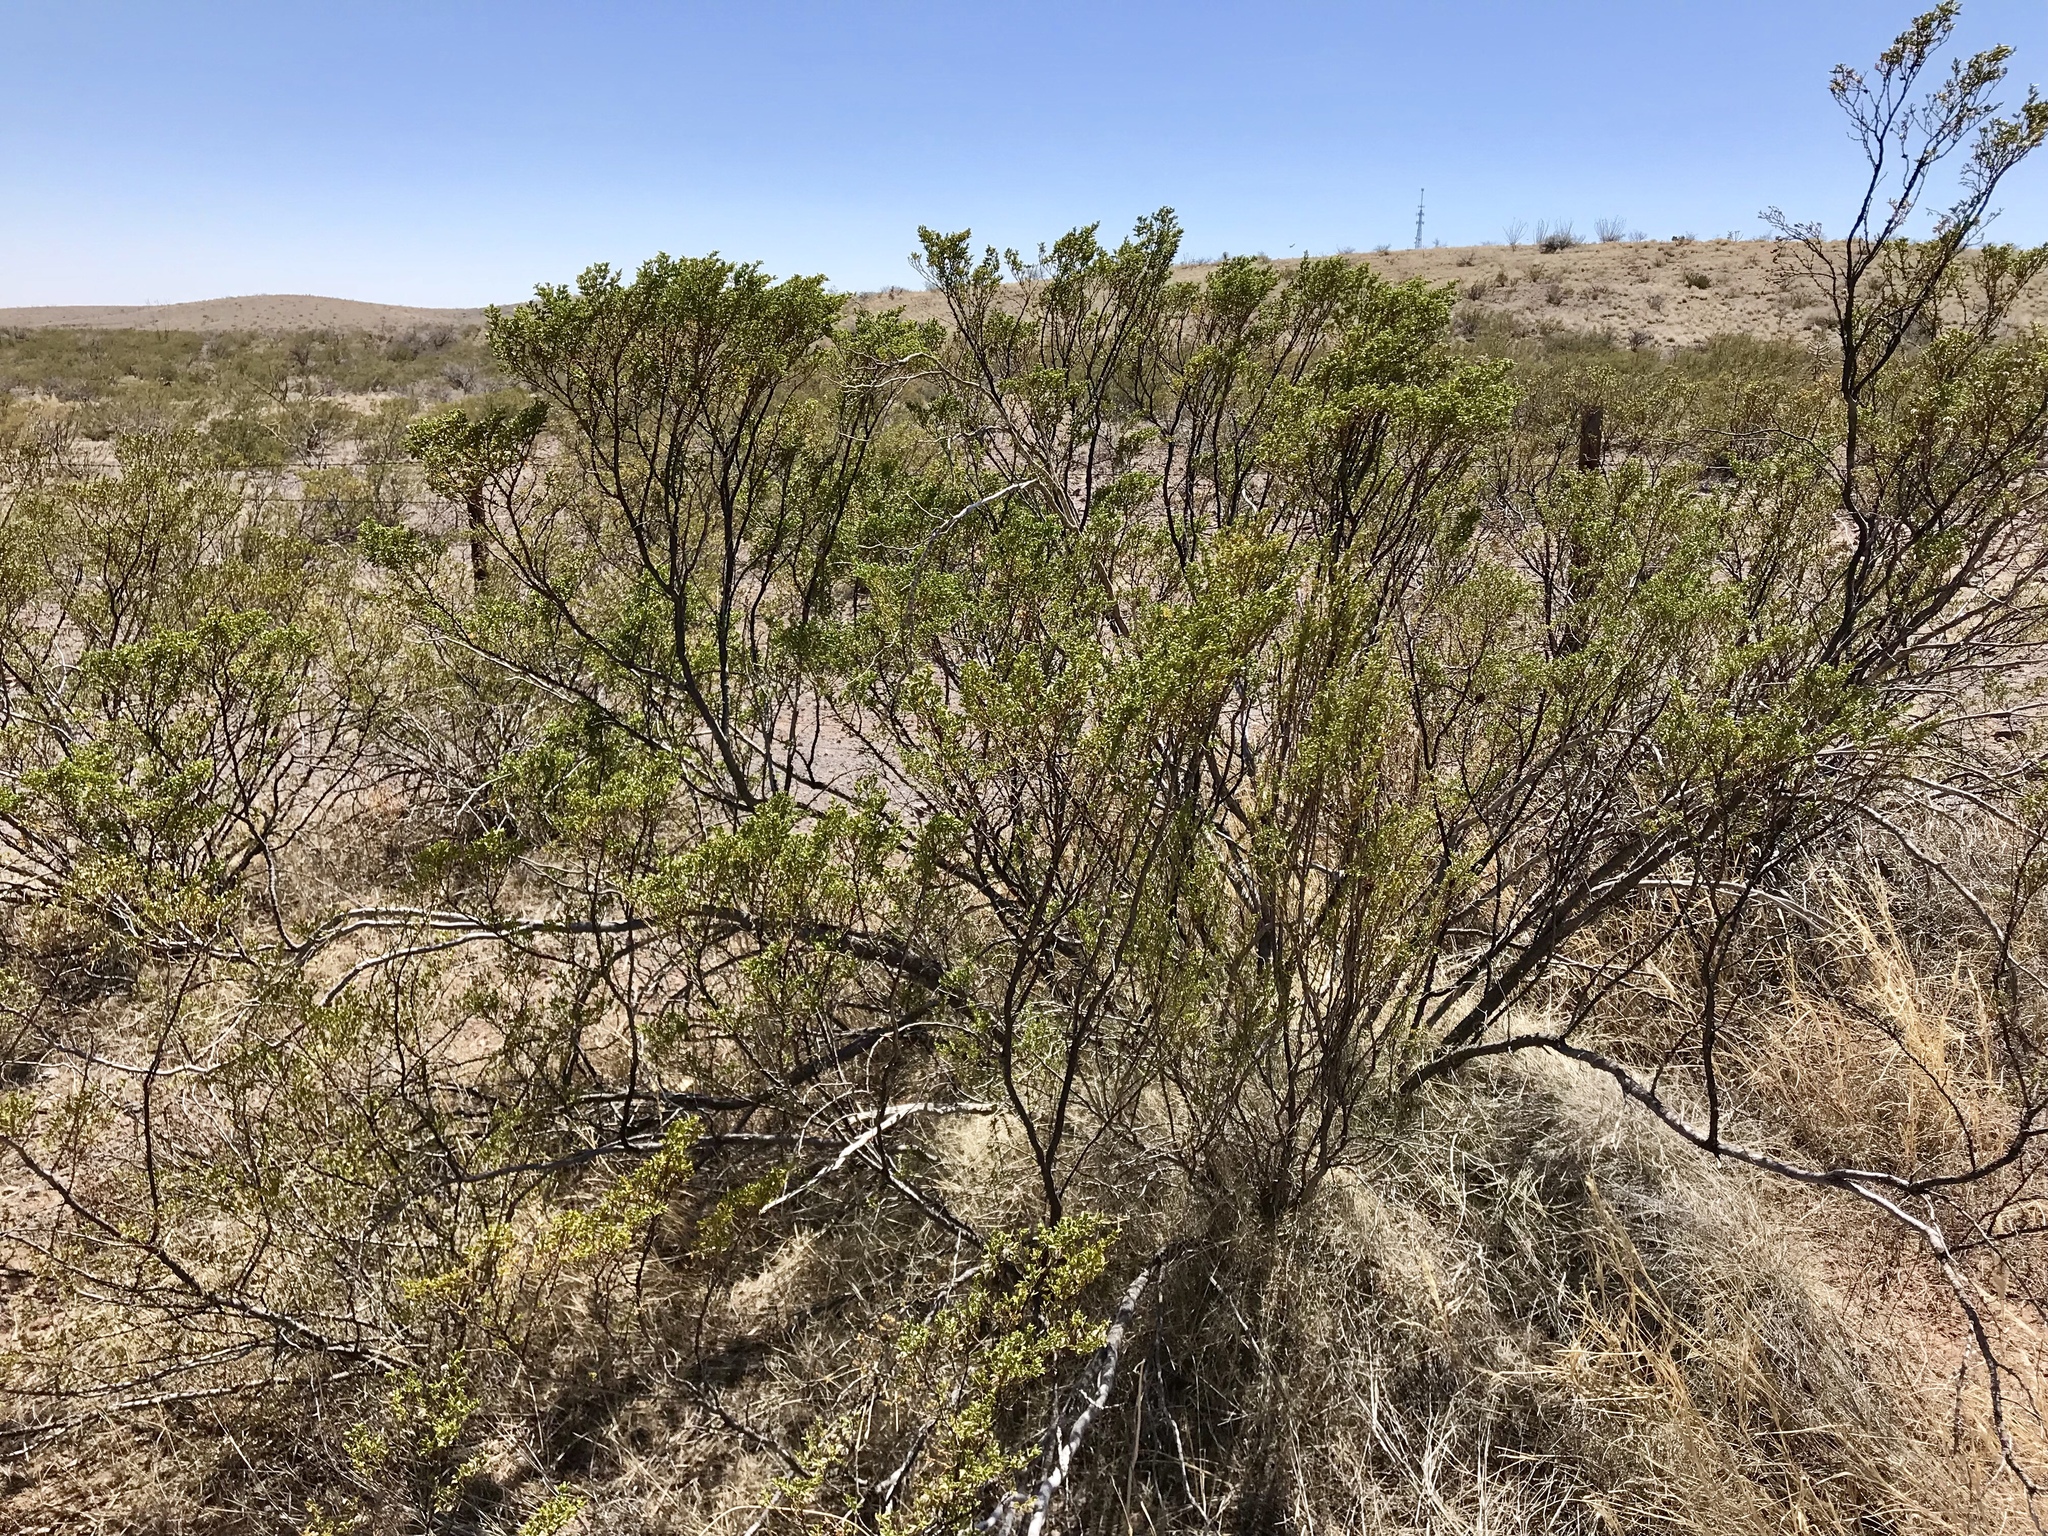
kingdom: Plantae
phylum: Tracheophyta
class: Magnoliopsida
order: Zygophyllales
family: Zygophyllaceae
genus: Larrea
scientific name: Larrea tridentata
